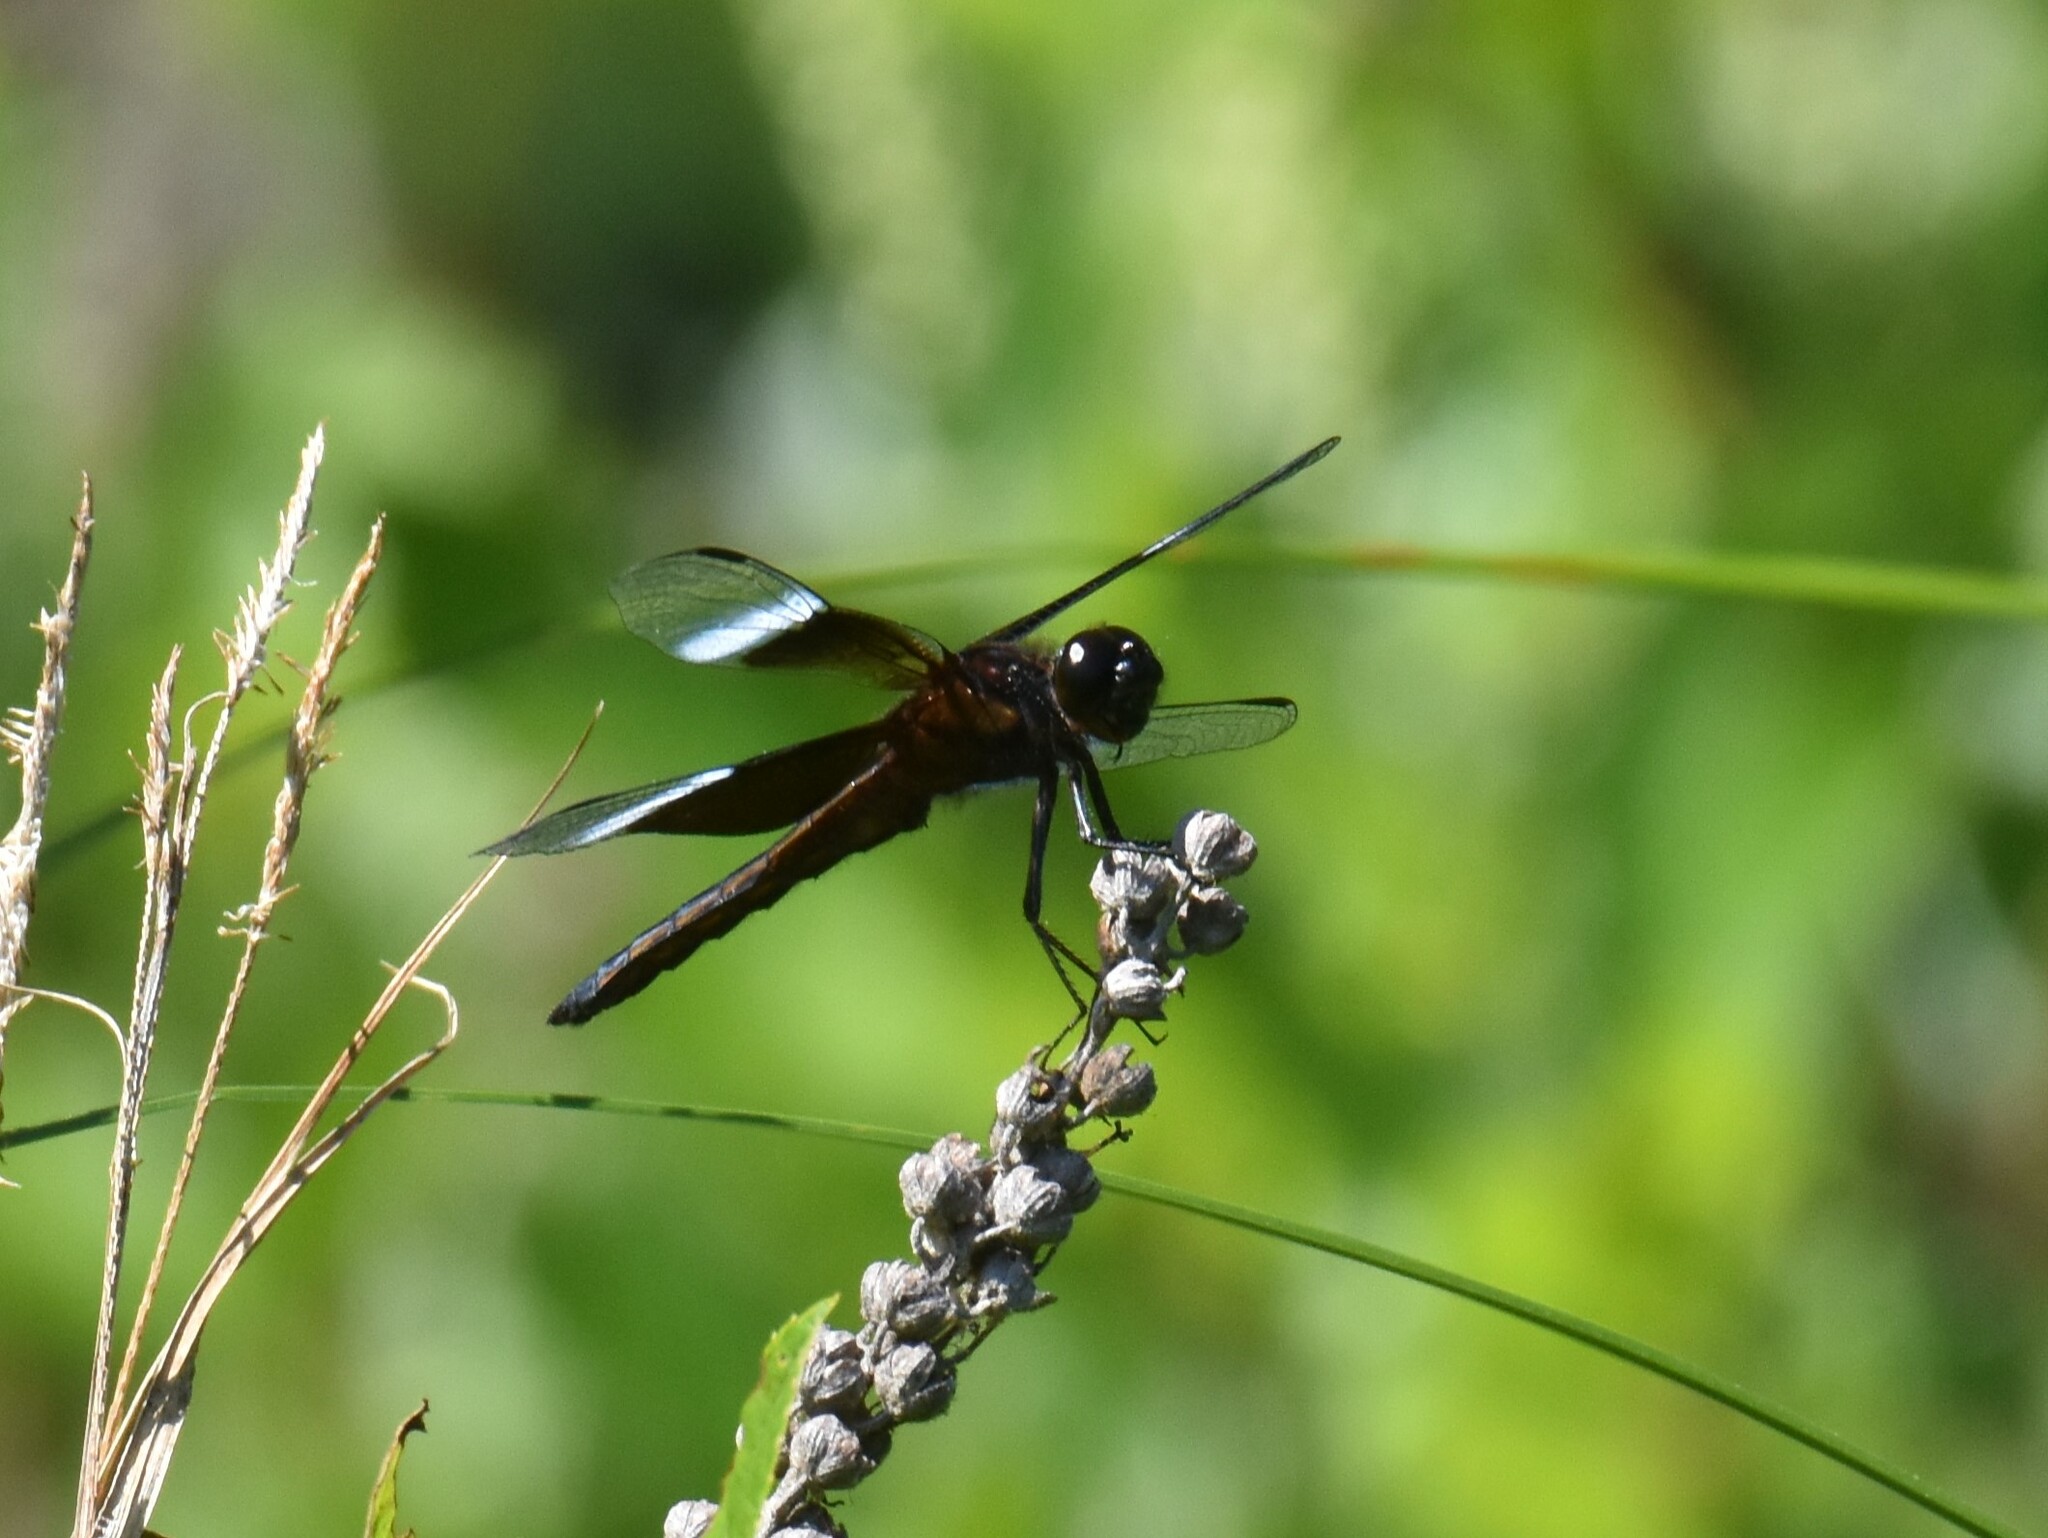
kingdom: Animalia
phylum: Arthropoda
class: Insecta
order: Odonata
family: Libellulidae
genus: Libellula
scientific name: Libellula luctuosa
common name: Widow skimmer
